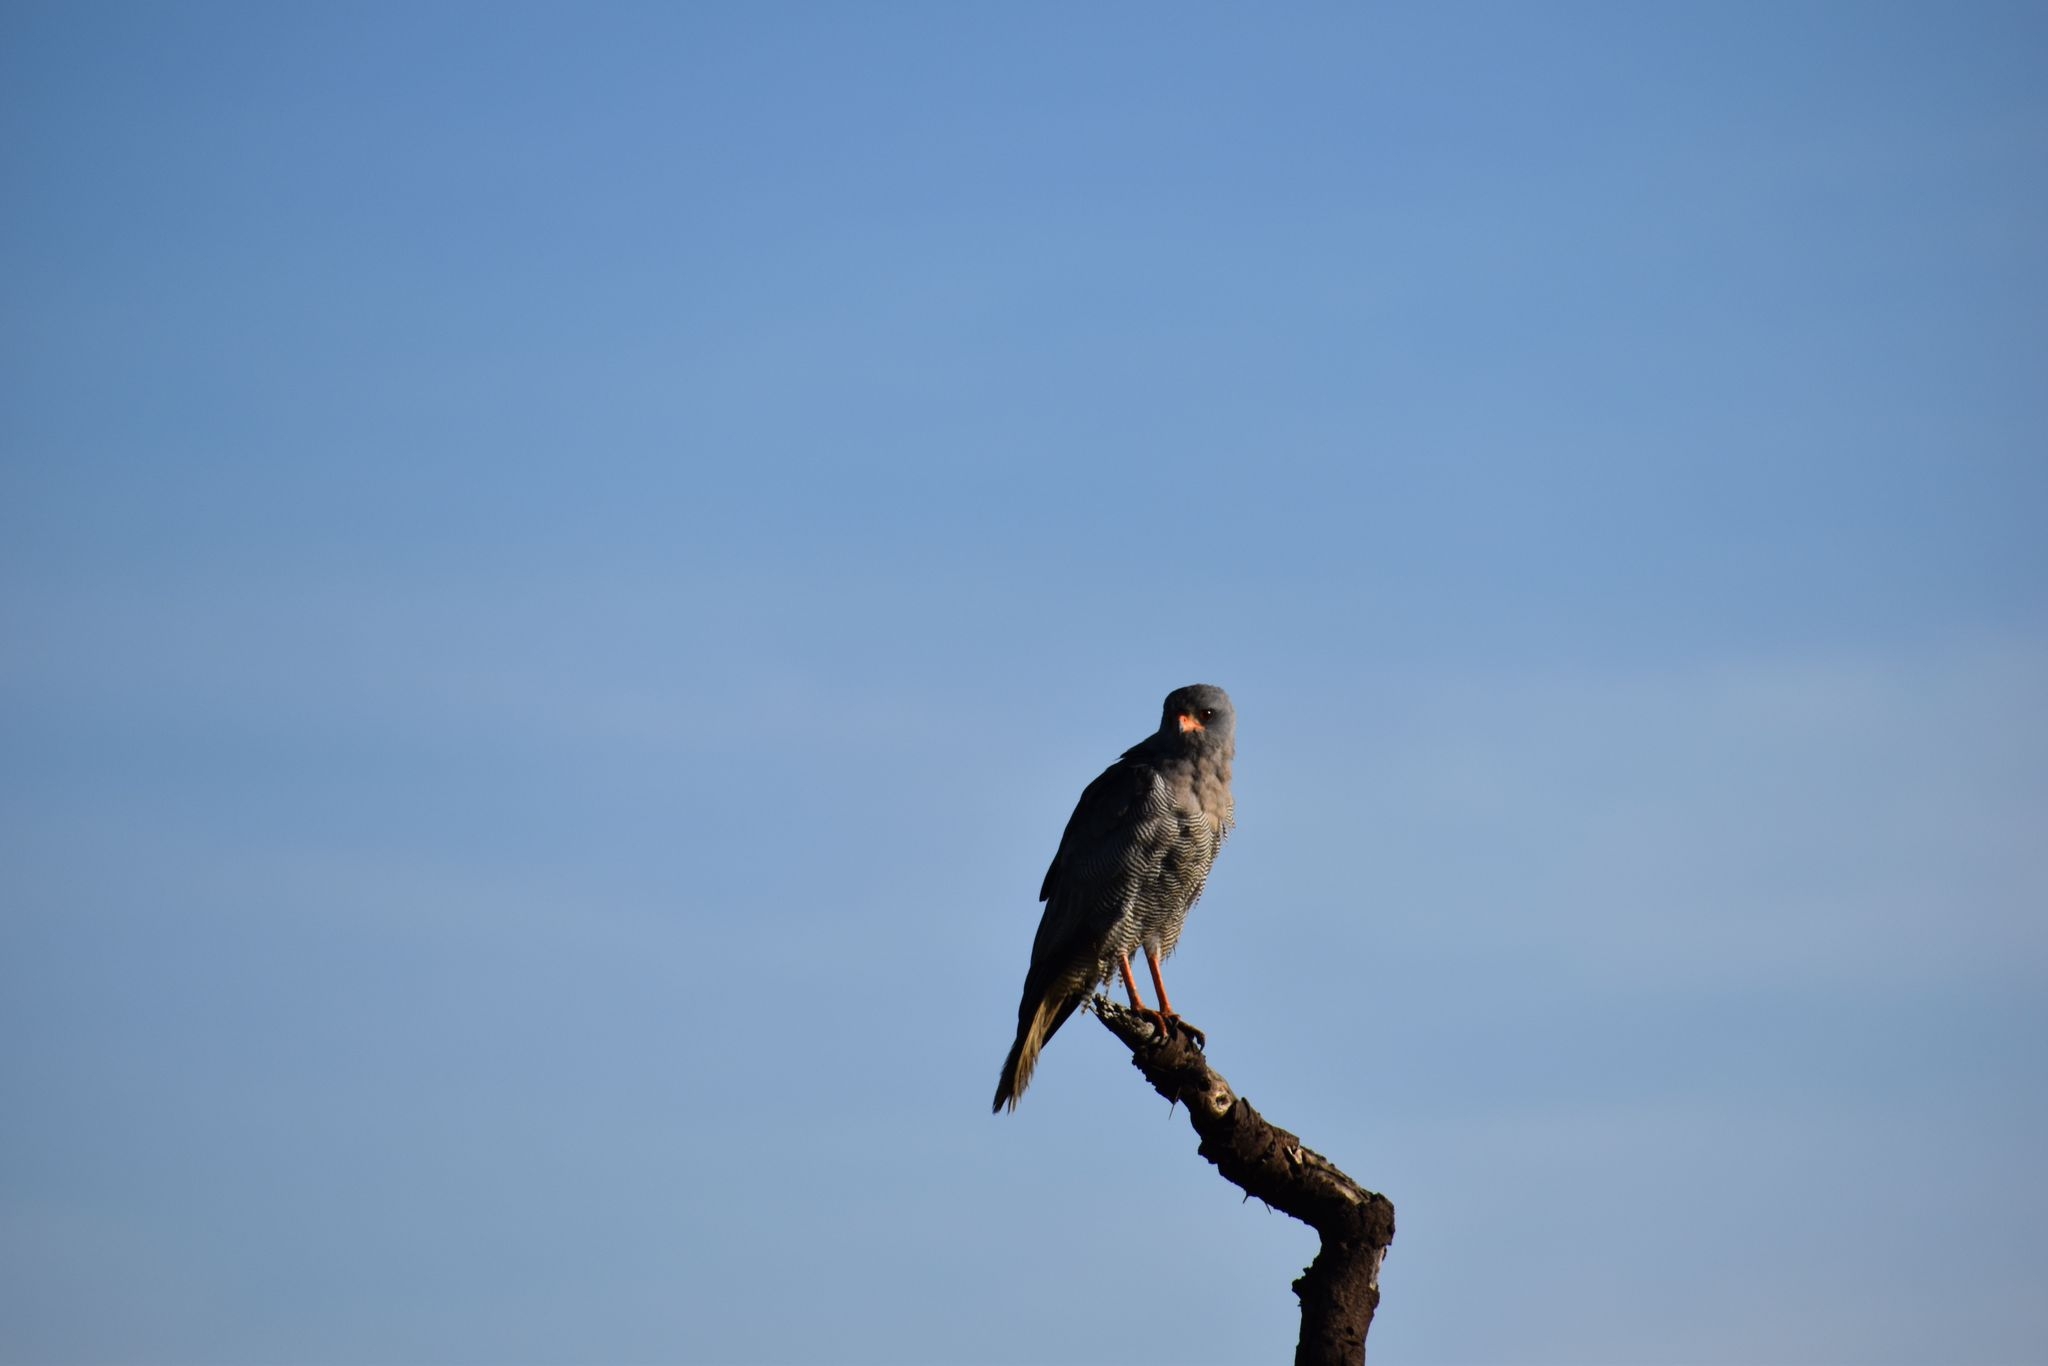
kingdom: Animalia
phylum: Chordata
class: Aves
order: Accipitriformes
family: Accipitridae
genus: Melierax
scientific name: Melierax metabates
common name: Dark chanting-goshawk
